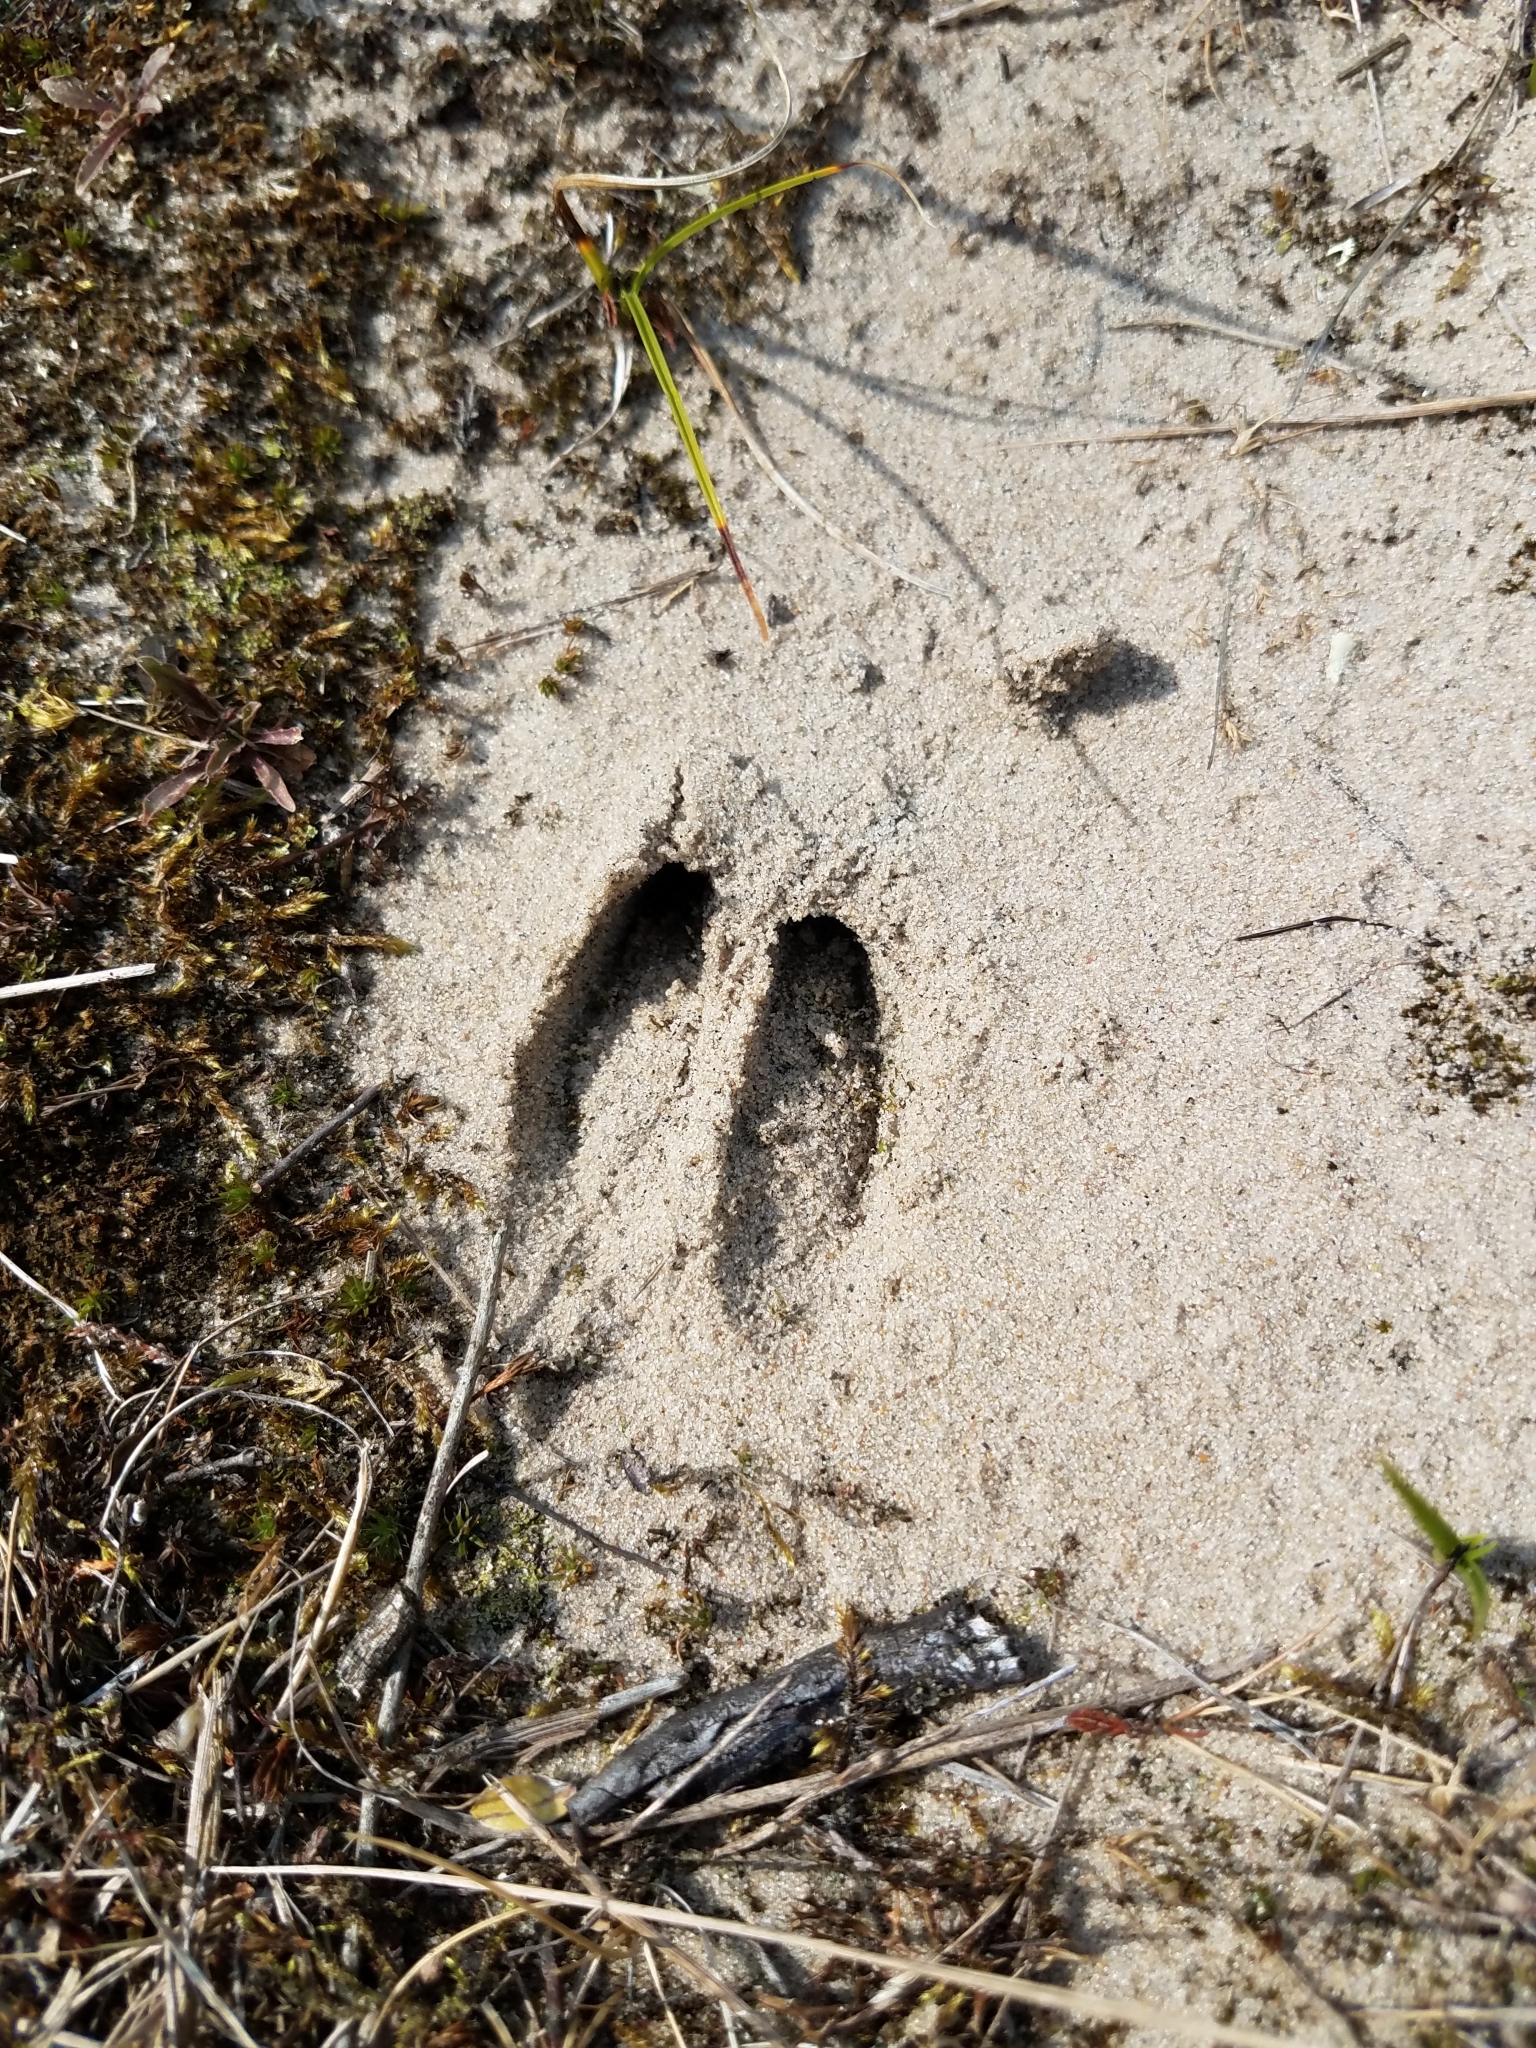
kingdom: Animalia
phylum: Chordata
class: Mammalia
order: Artiodactyla
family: Cervidae
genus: Capreolus
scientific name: Capreolus capreolus
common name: Western roe deer
